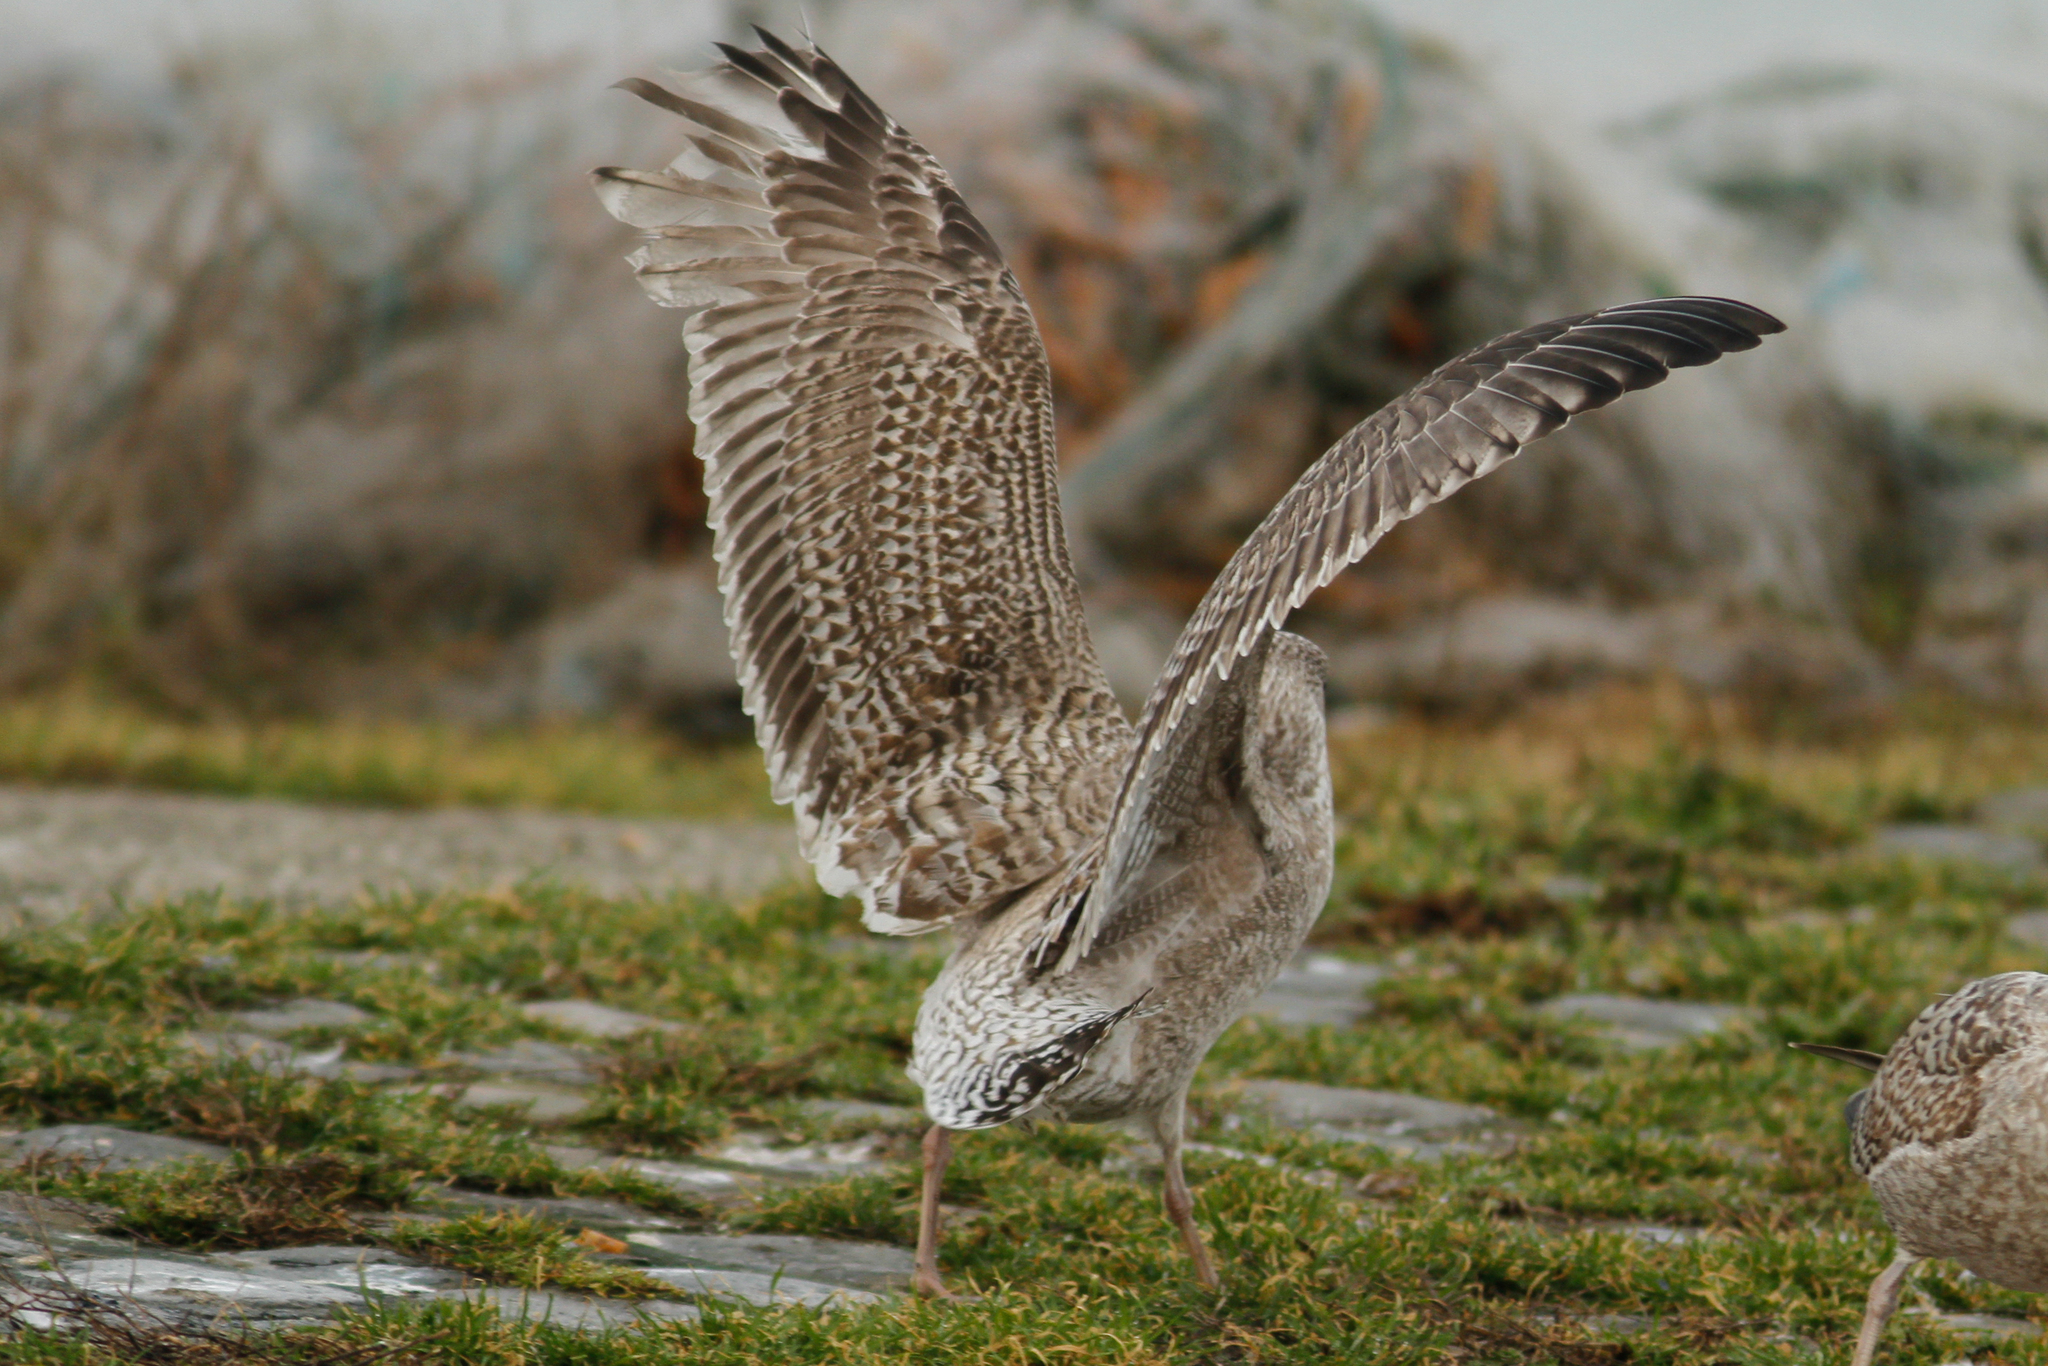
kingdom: Animalia
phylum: Chordata
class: Aves
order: Charadriiformes
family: Laridae
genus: Larus
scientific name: Larus argentatus
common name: Herring gull
